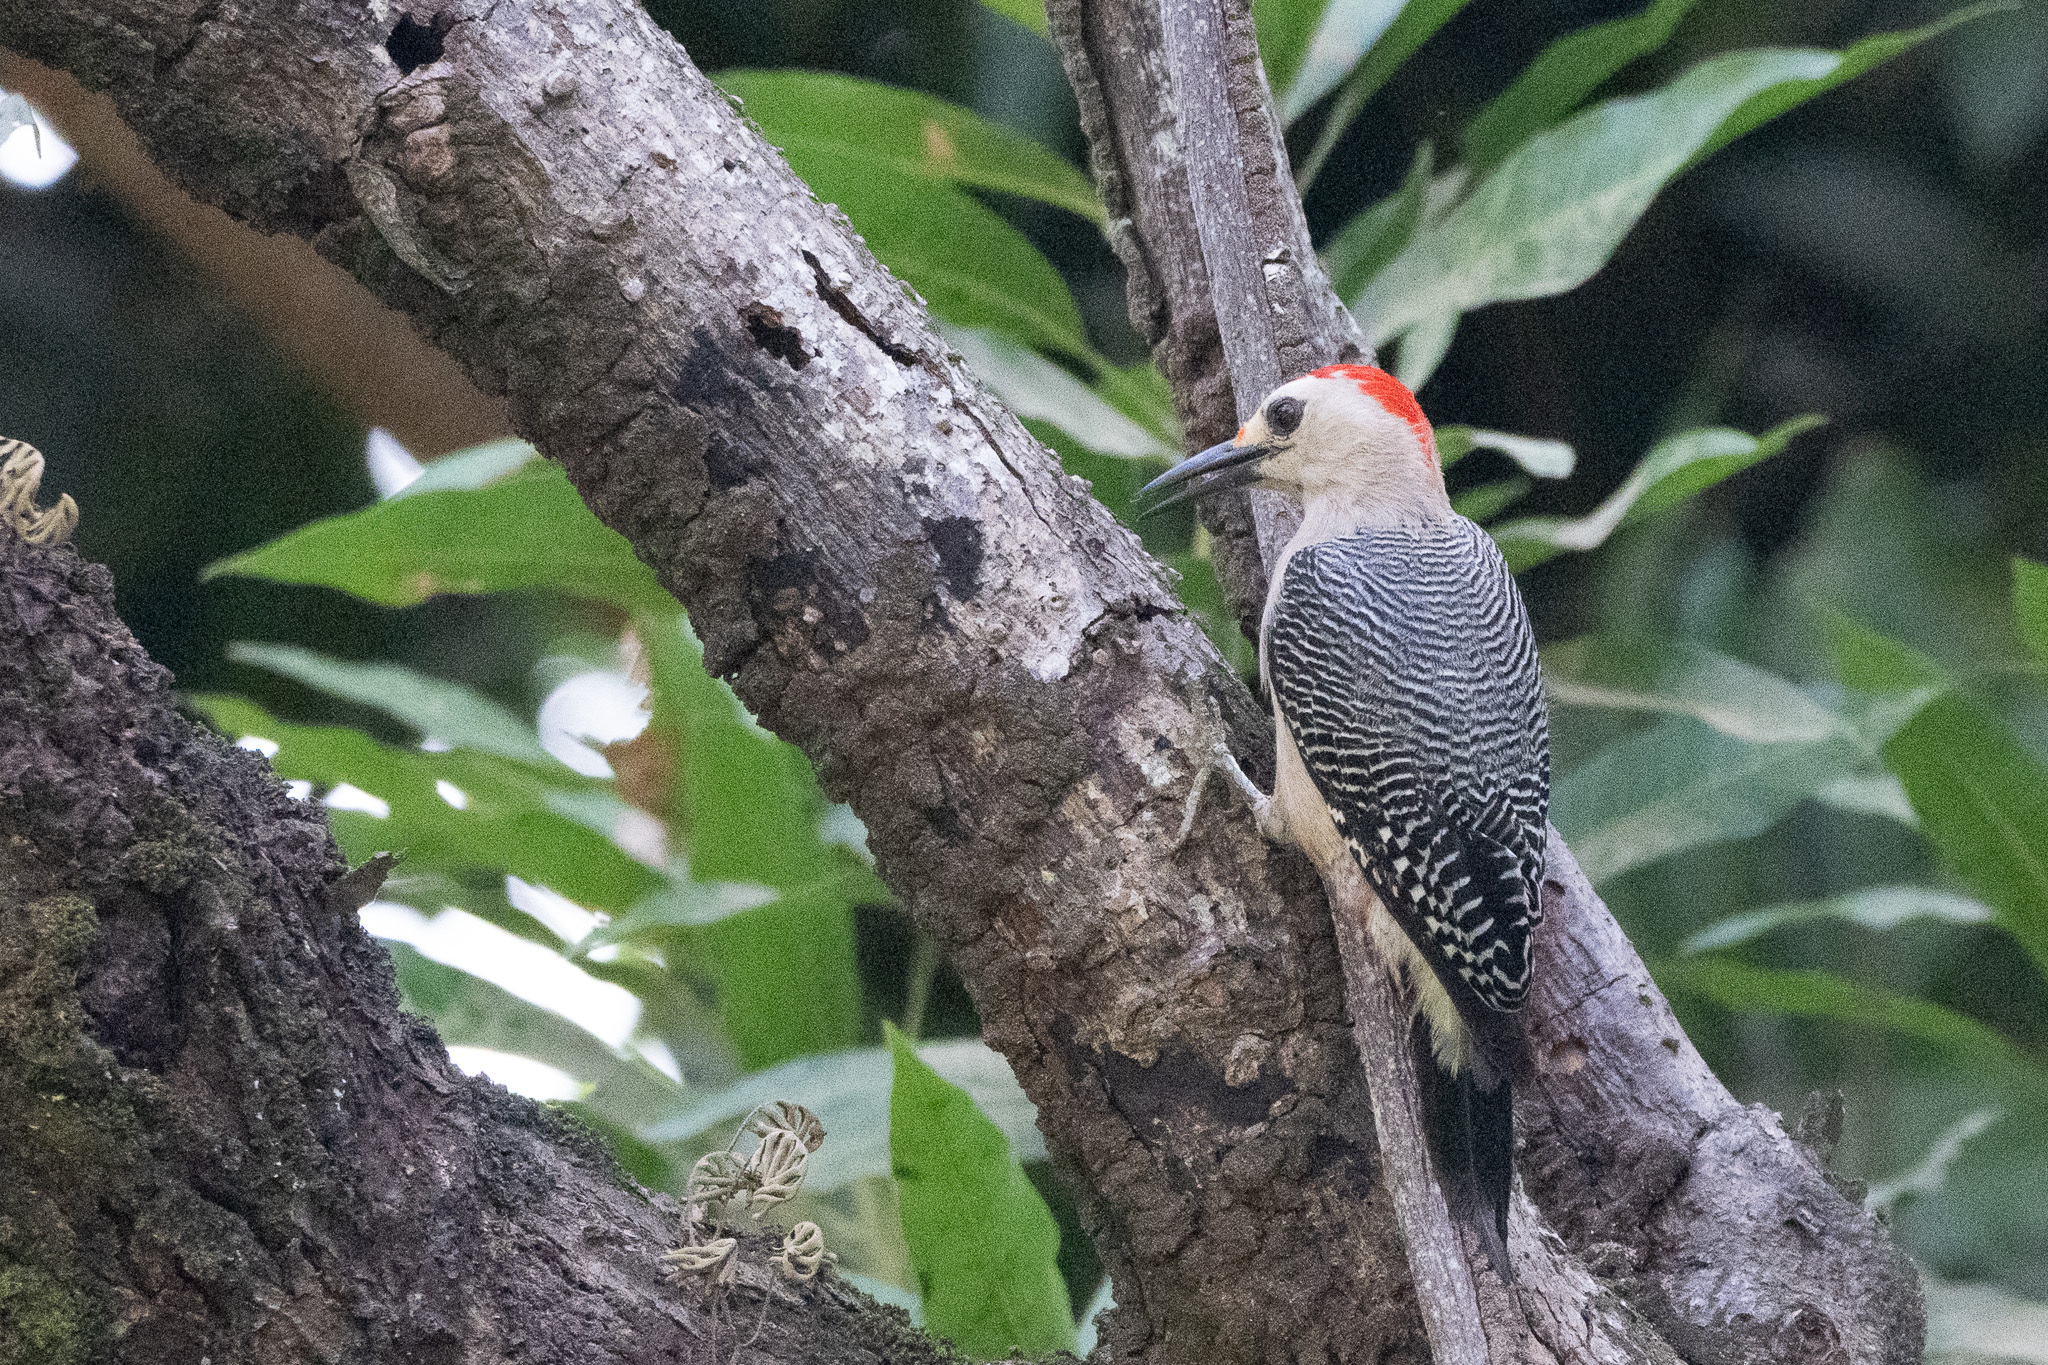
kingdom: Animalia
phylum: Chordata
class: Aves
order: Piciformes
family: Picidae
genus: Melanerpes
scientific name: Melanerpes aurifrons
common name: Golden-fronted woodpecker
